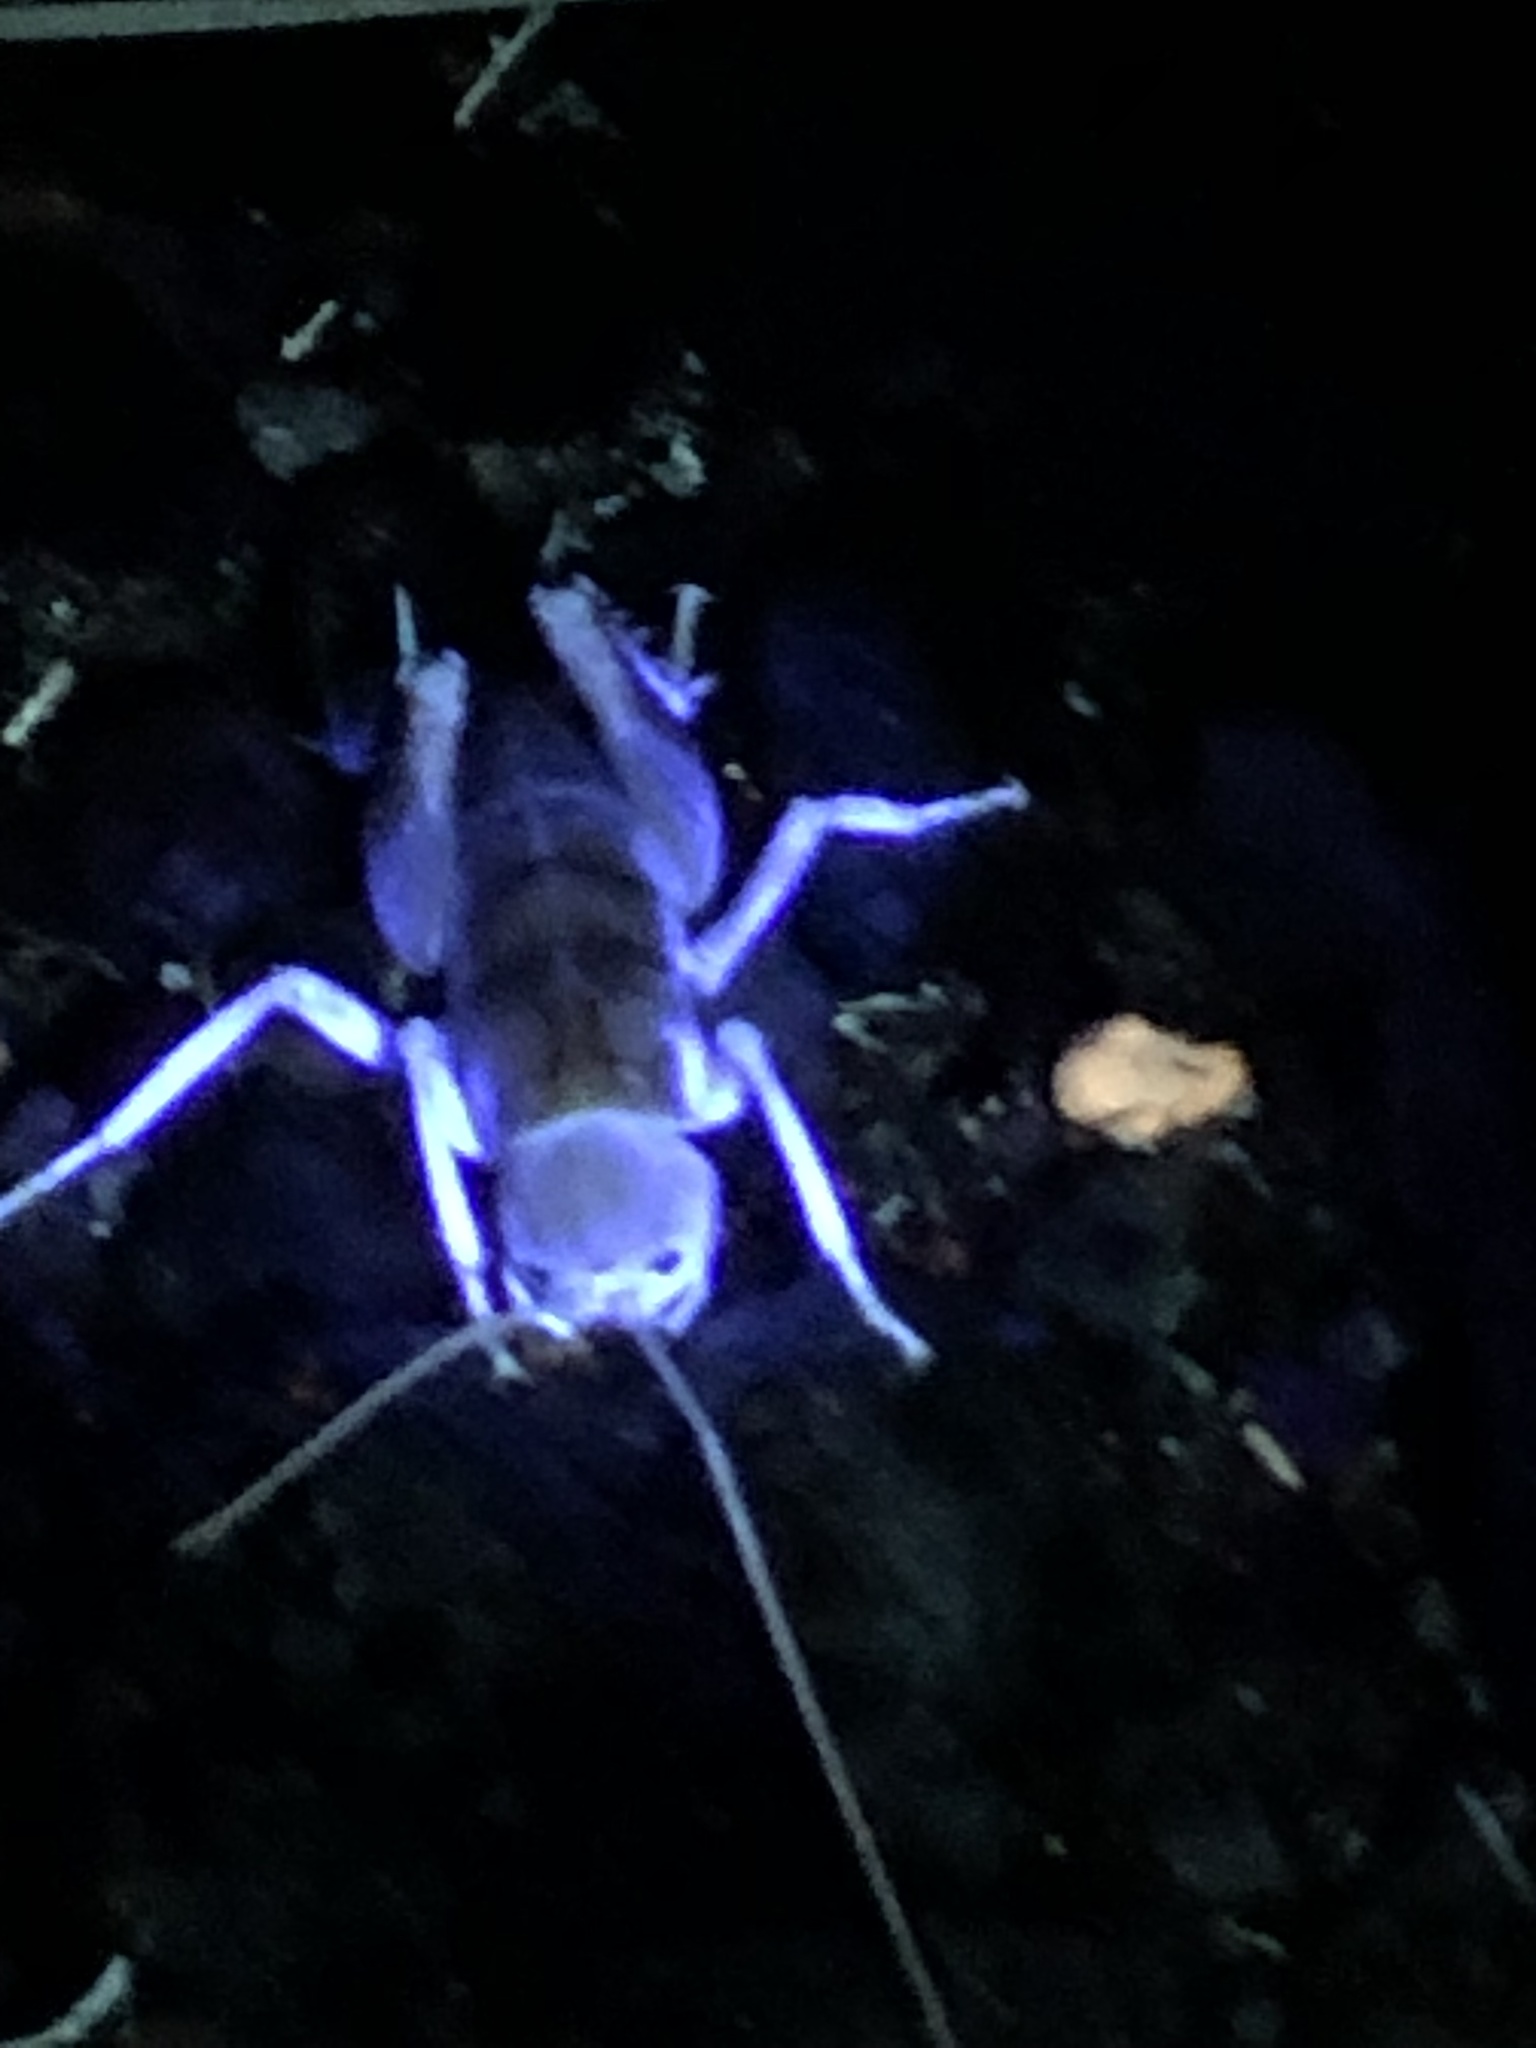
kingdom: Animalia
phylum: Arthropoda
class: Insecta
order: Orthoptera
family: Rhaphidophoridae
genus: Ceuthophilus
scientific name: Ceuthophilus californianus
